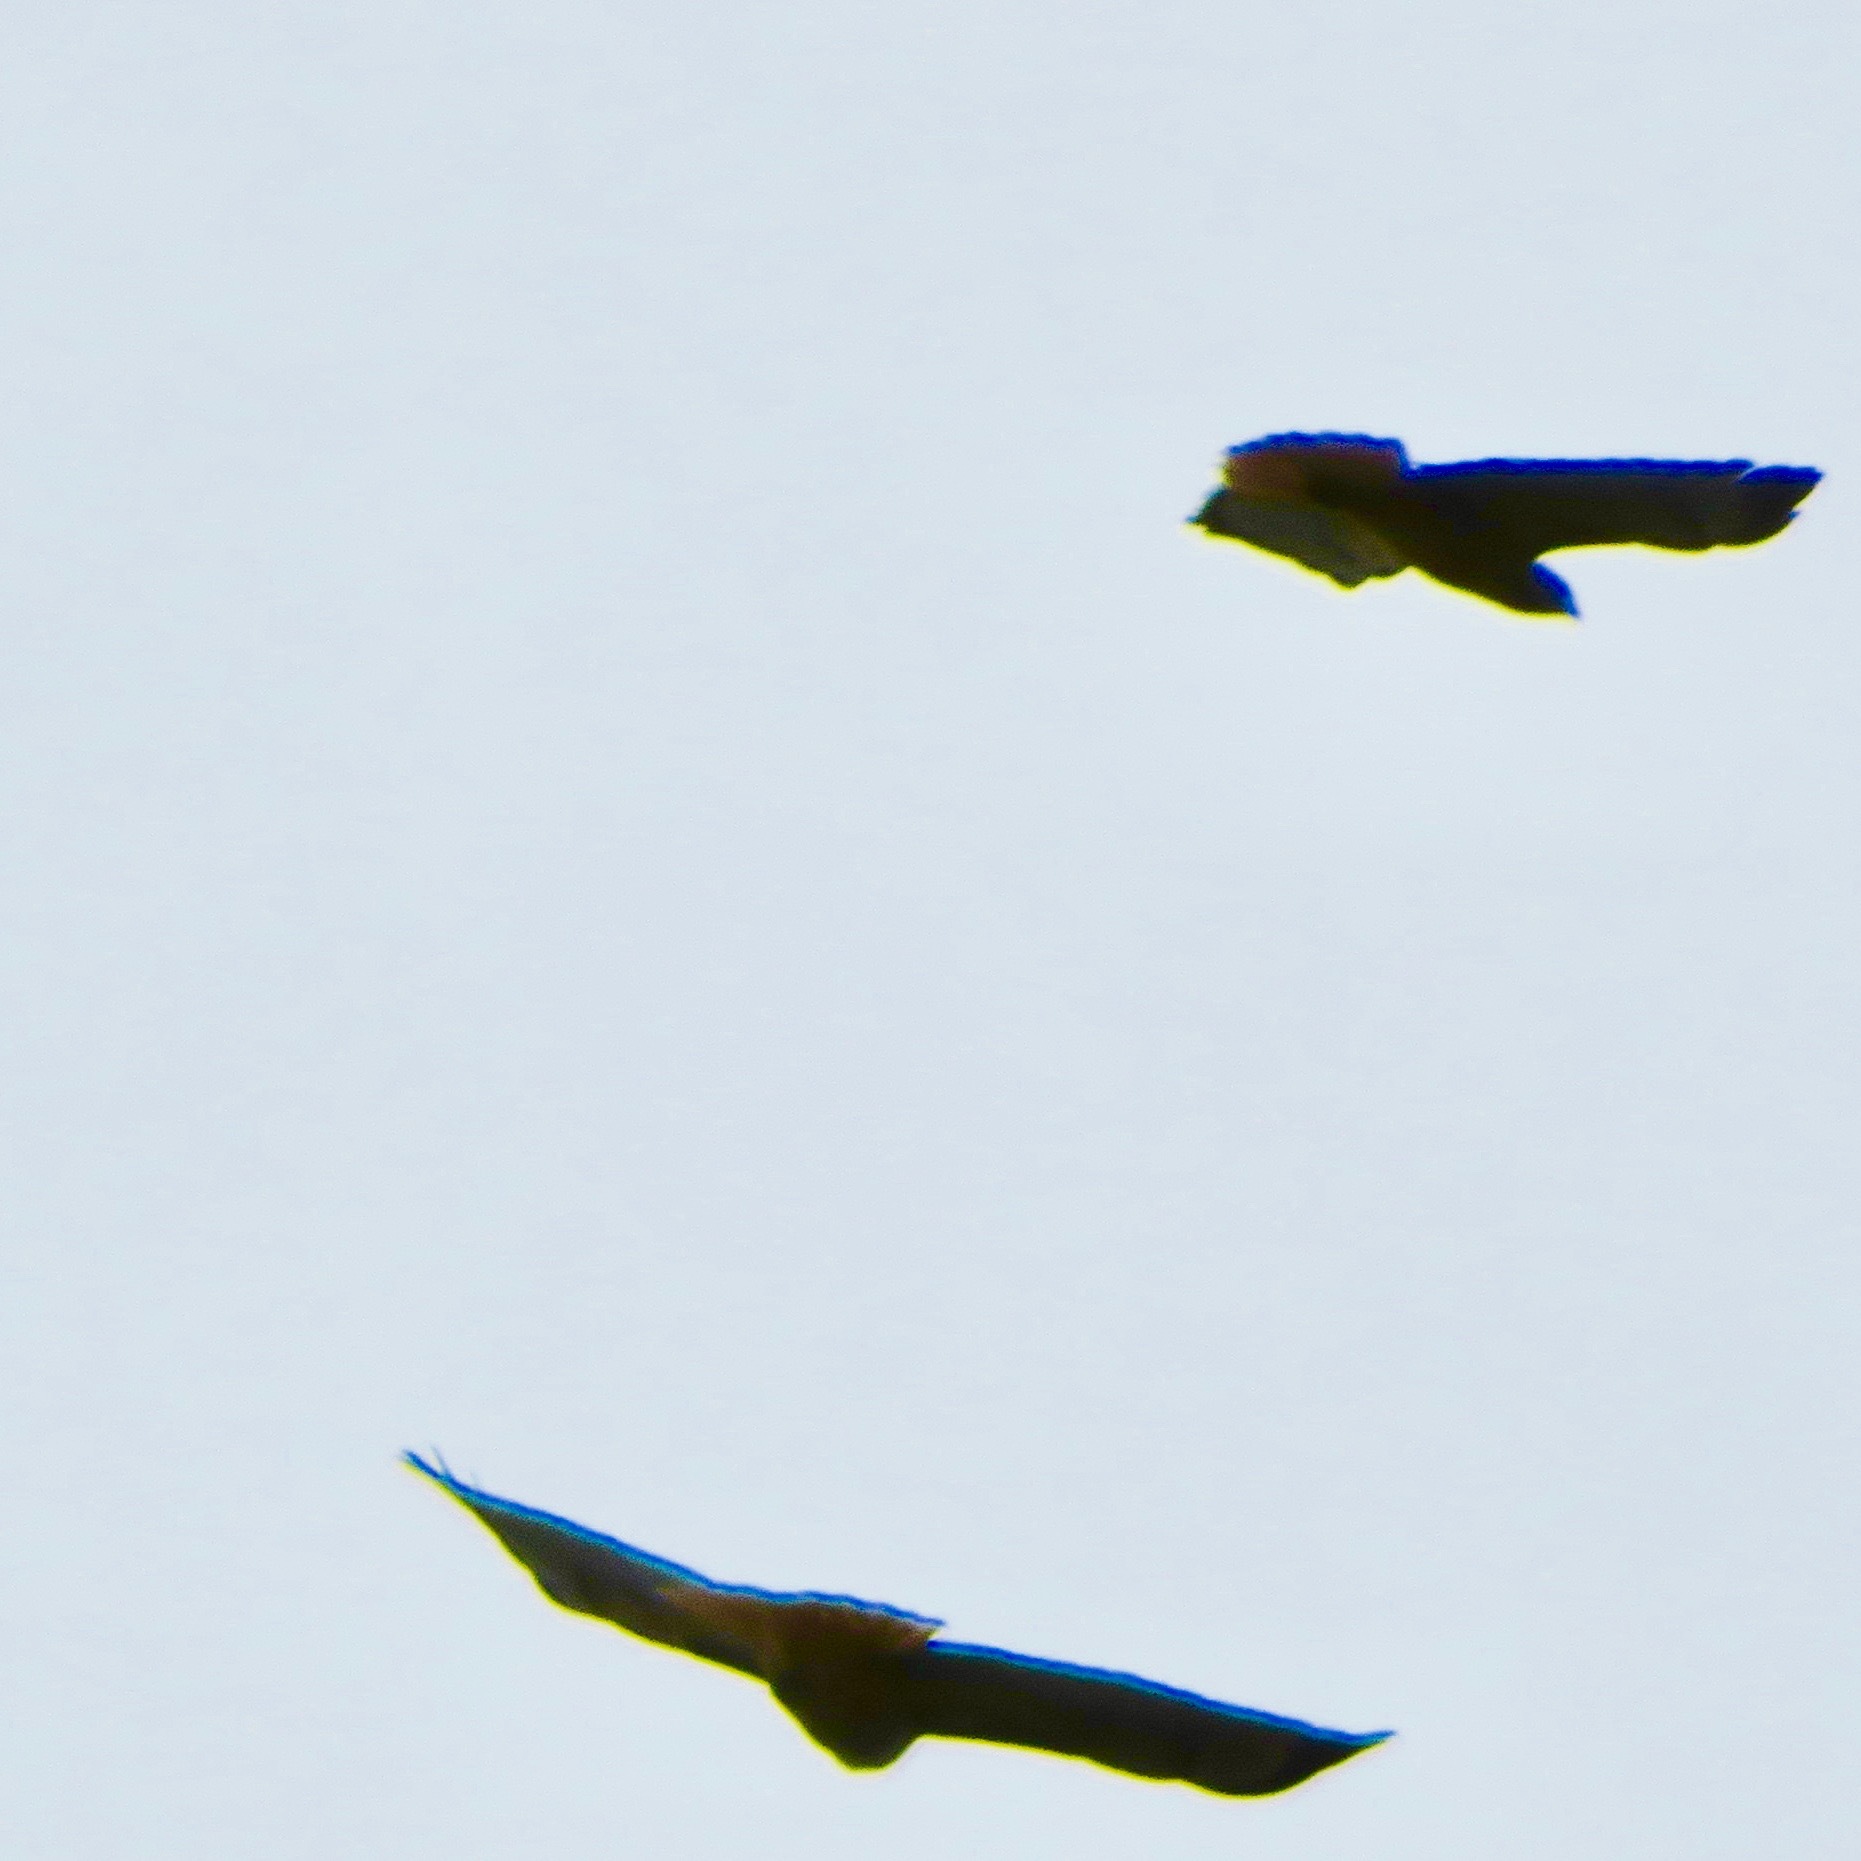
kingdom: Animalia
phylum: Chordata
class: Aves
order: Accipitriformes
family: Accipitridae
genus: Buteo
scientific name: Buteo jamaicensis
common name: Red-tailed hawk
